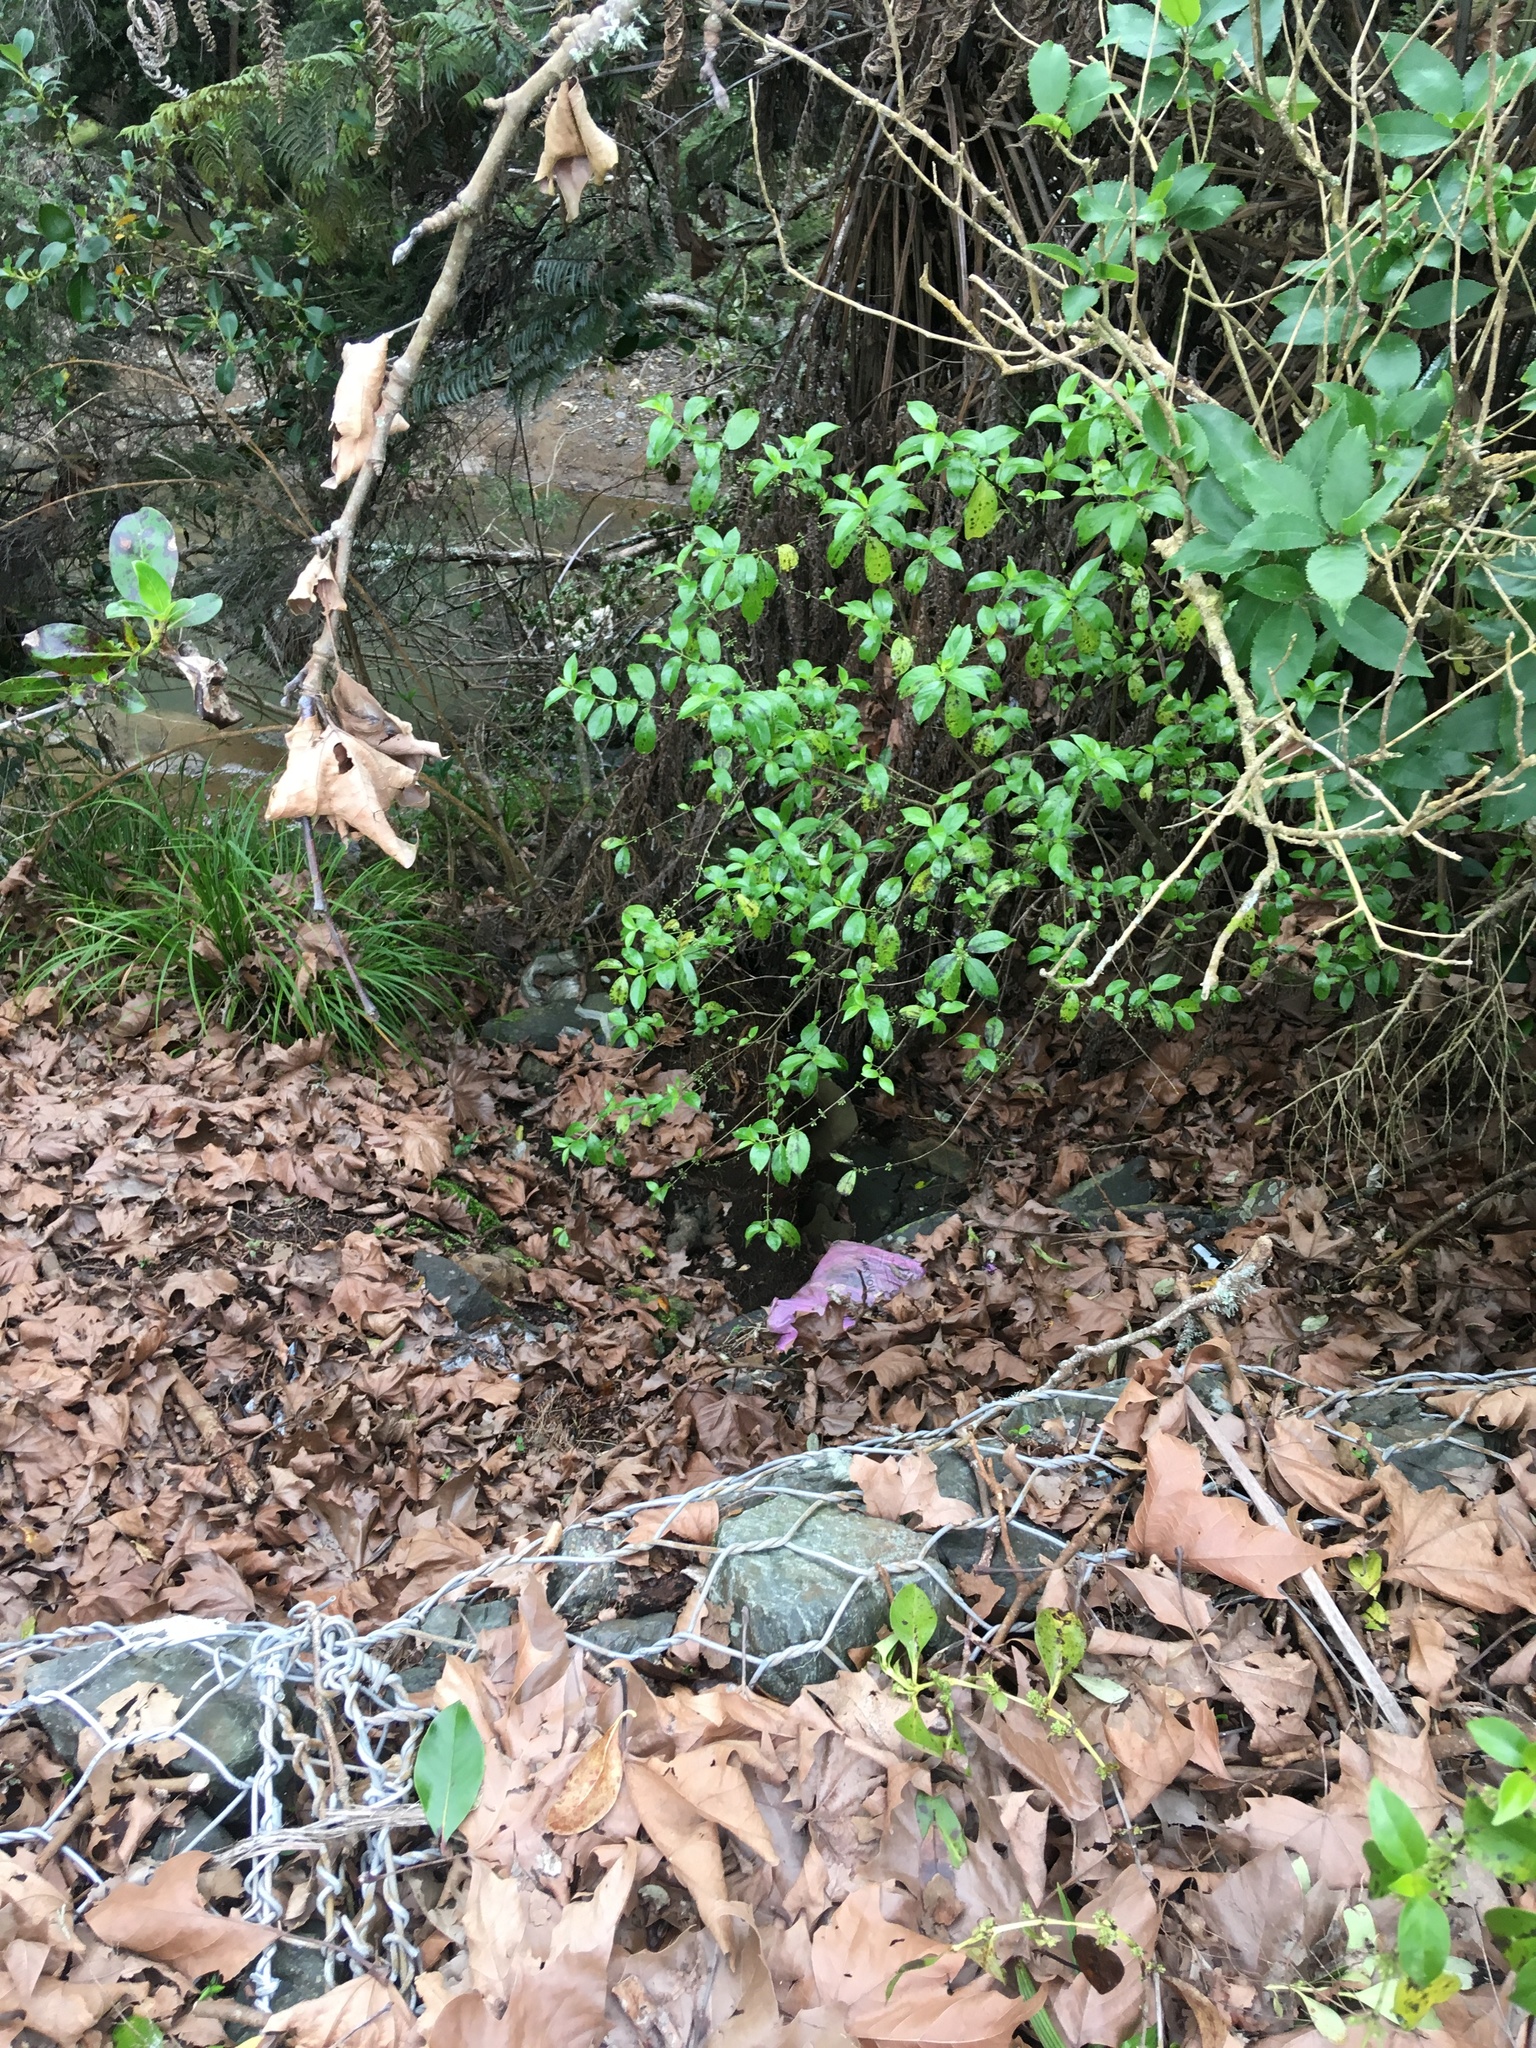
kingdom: Plantae
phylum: Tracheophyta
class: Magnoliopsida
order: Gentianales
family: Loganiaceae
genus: Geniostoma
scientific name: Geniostoma ligustrifolium
